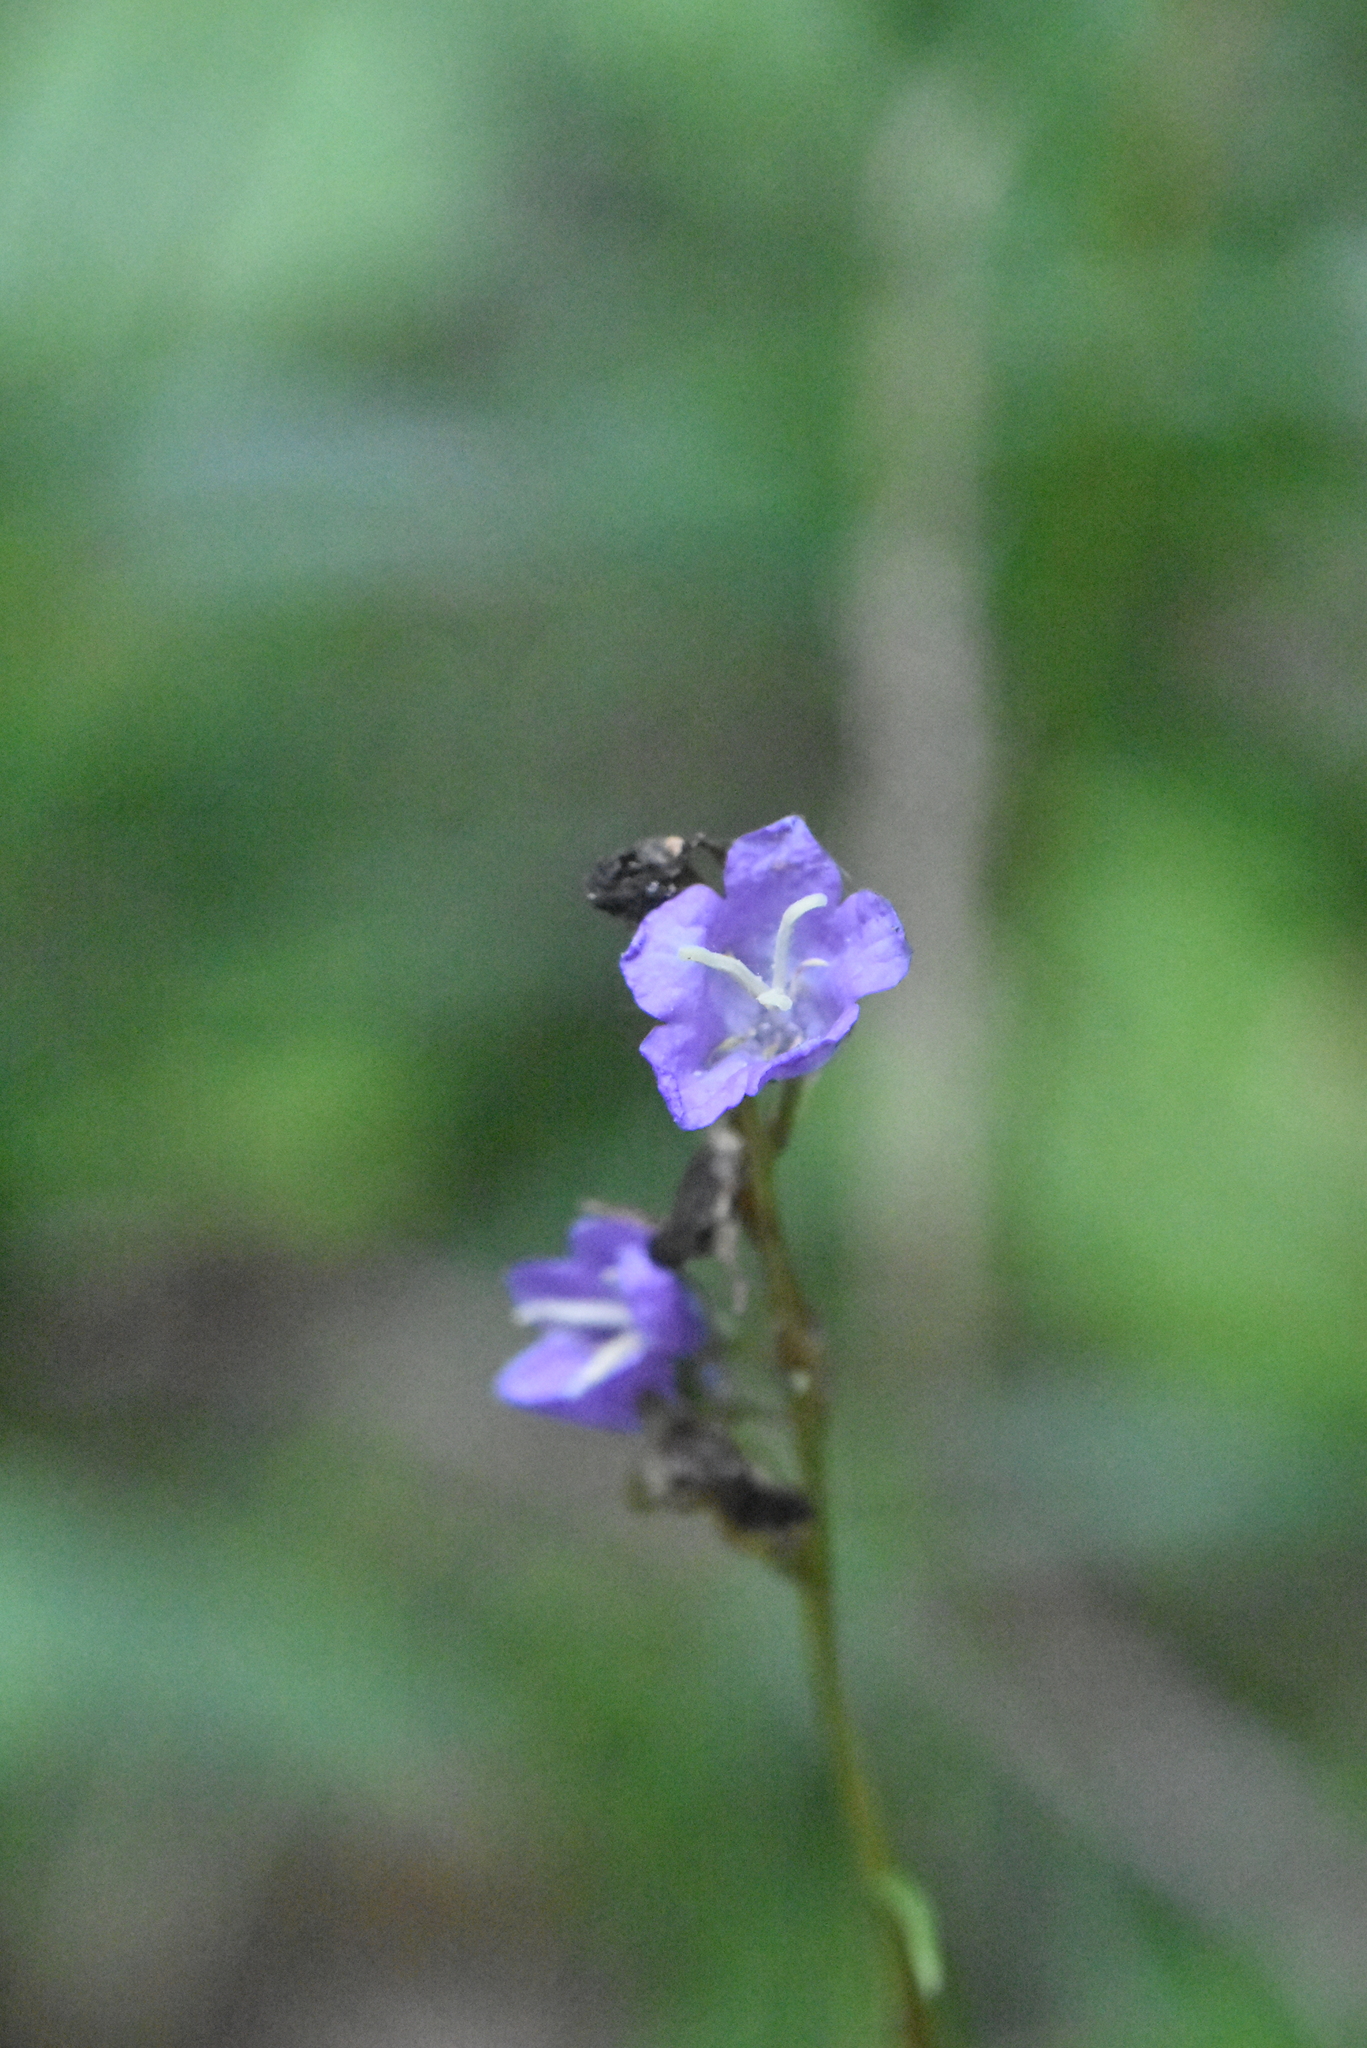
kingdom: Plantae
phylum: Tracheophyta
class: Magnoliopsida
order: Asterales
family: Campanulaceae
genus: Campanula
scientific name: Campanula persicifolia
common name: Peach-leaved bellflower
